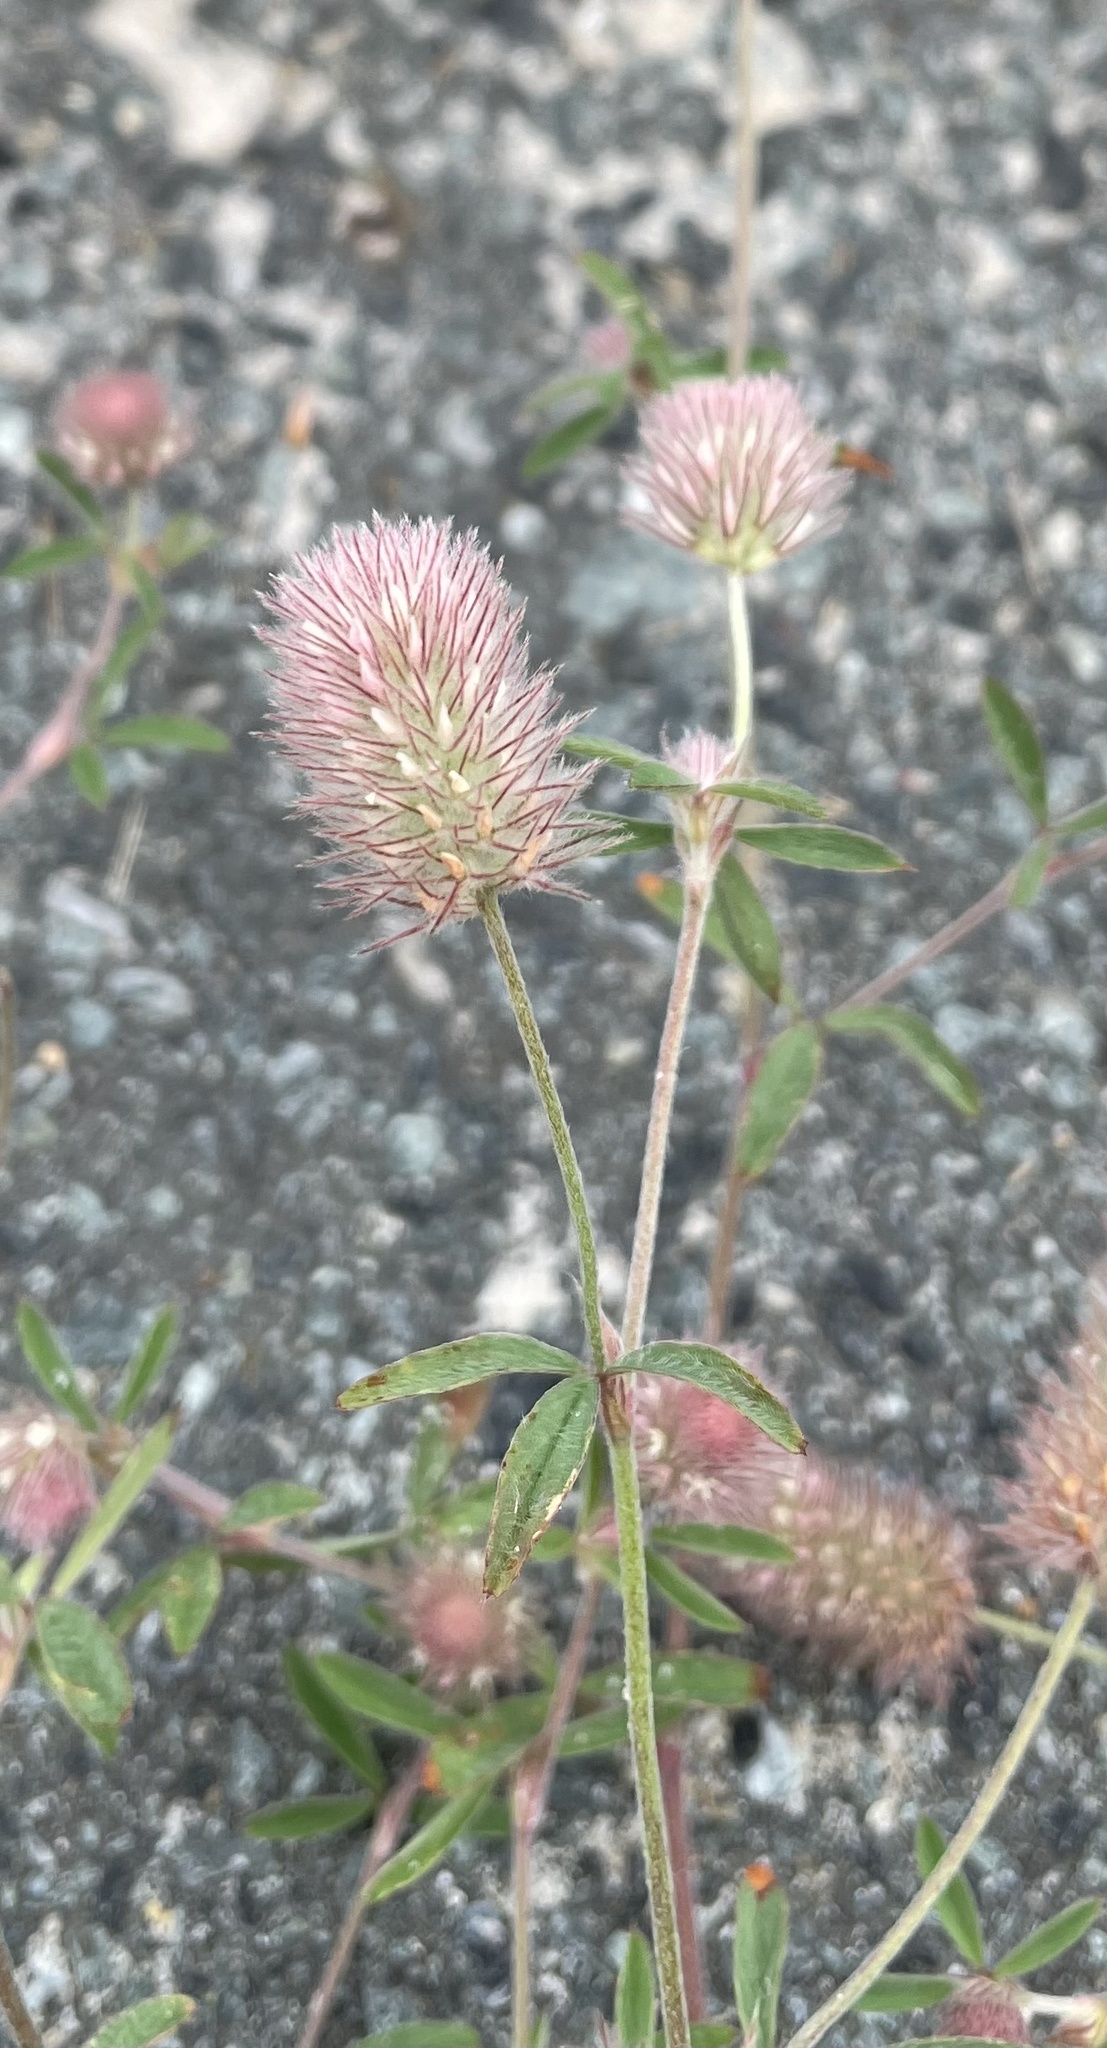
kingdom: Plantae
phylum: Tracheophyta
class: Magnoliopsida
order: Fabales
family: Fabaceae
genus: Trifolium
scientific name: Trifolium arvense
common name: Hare's-foot clover
